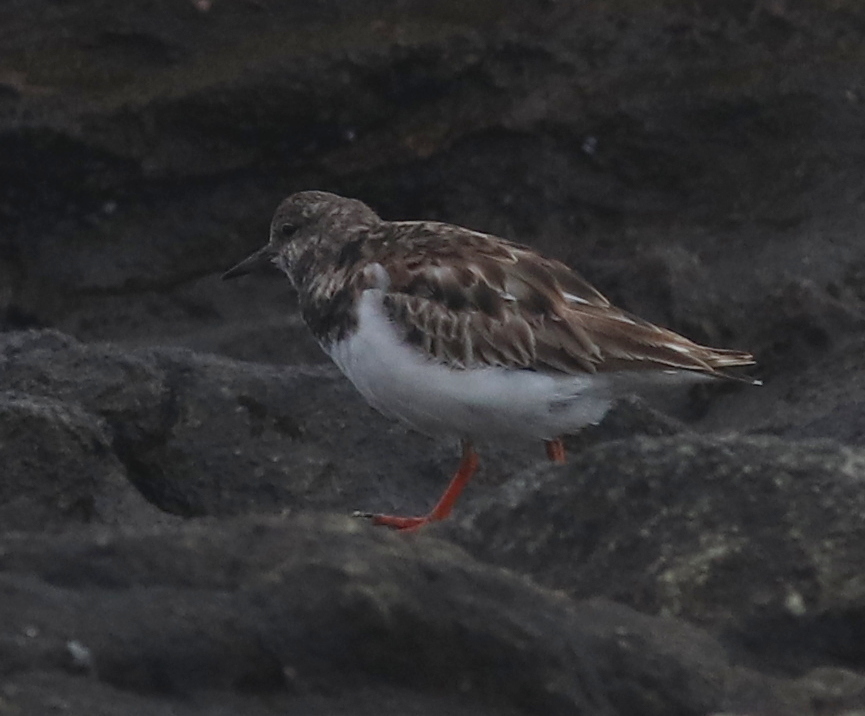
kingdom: Animalia
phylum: Chordata
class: Aves
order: Charadriiformes
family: Scolopacidae
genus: Arenaria
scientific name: Arenaria interpres
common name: Ruddy turnstone
